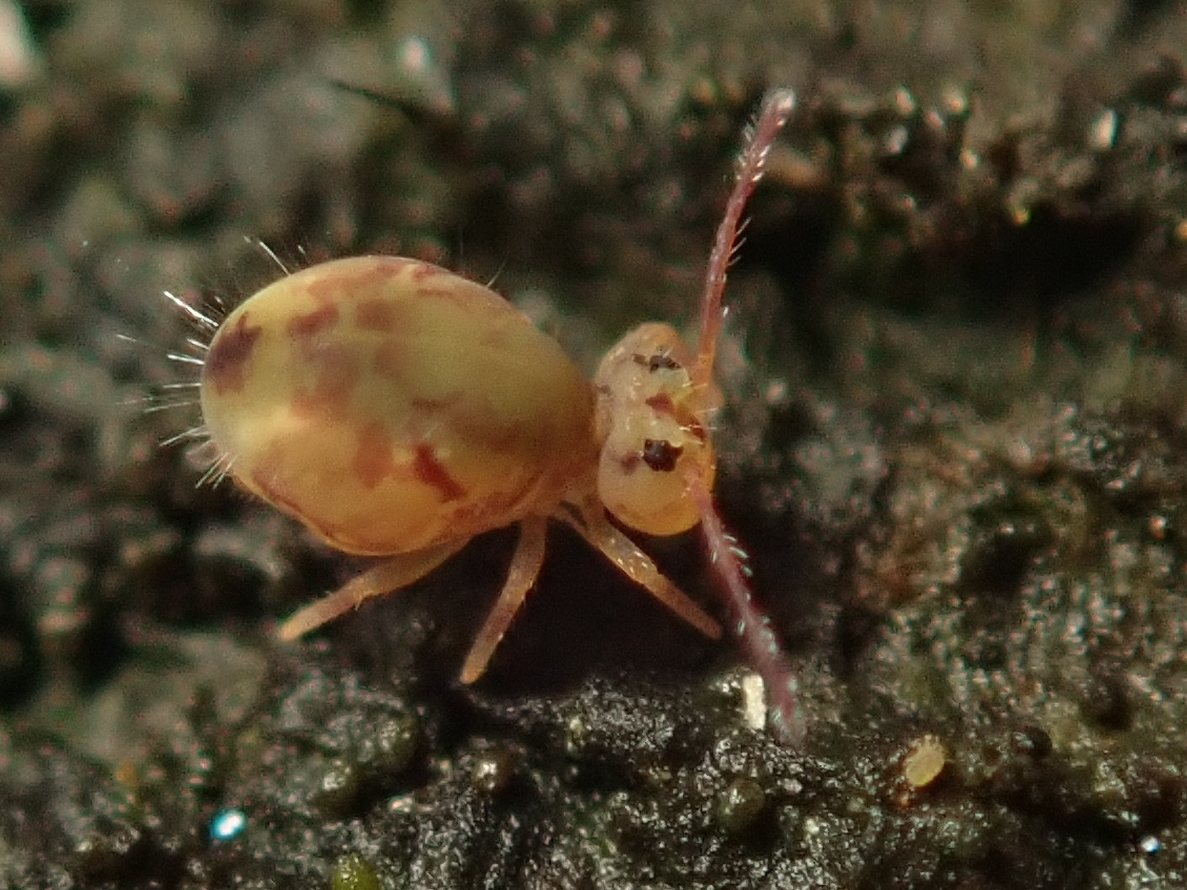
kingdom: Animalia
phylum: Arthropoda
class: Collembola
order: Symphypleona
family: Dicyrtomidae
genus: Dicyrtomina
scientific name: Dicyrtomina ornata
